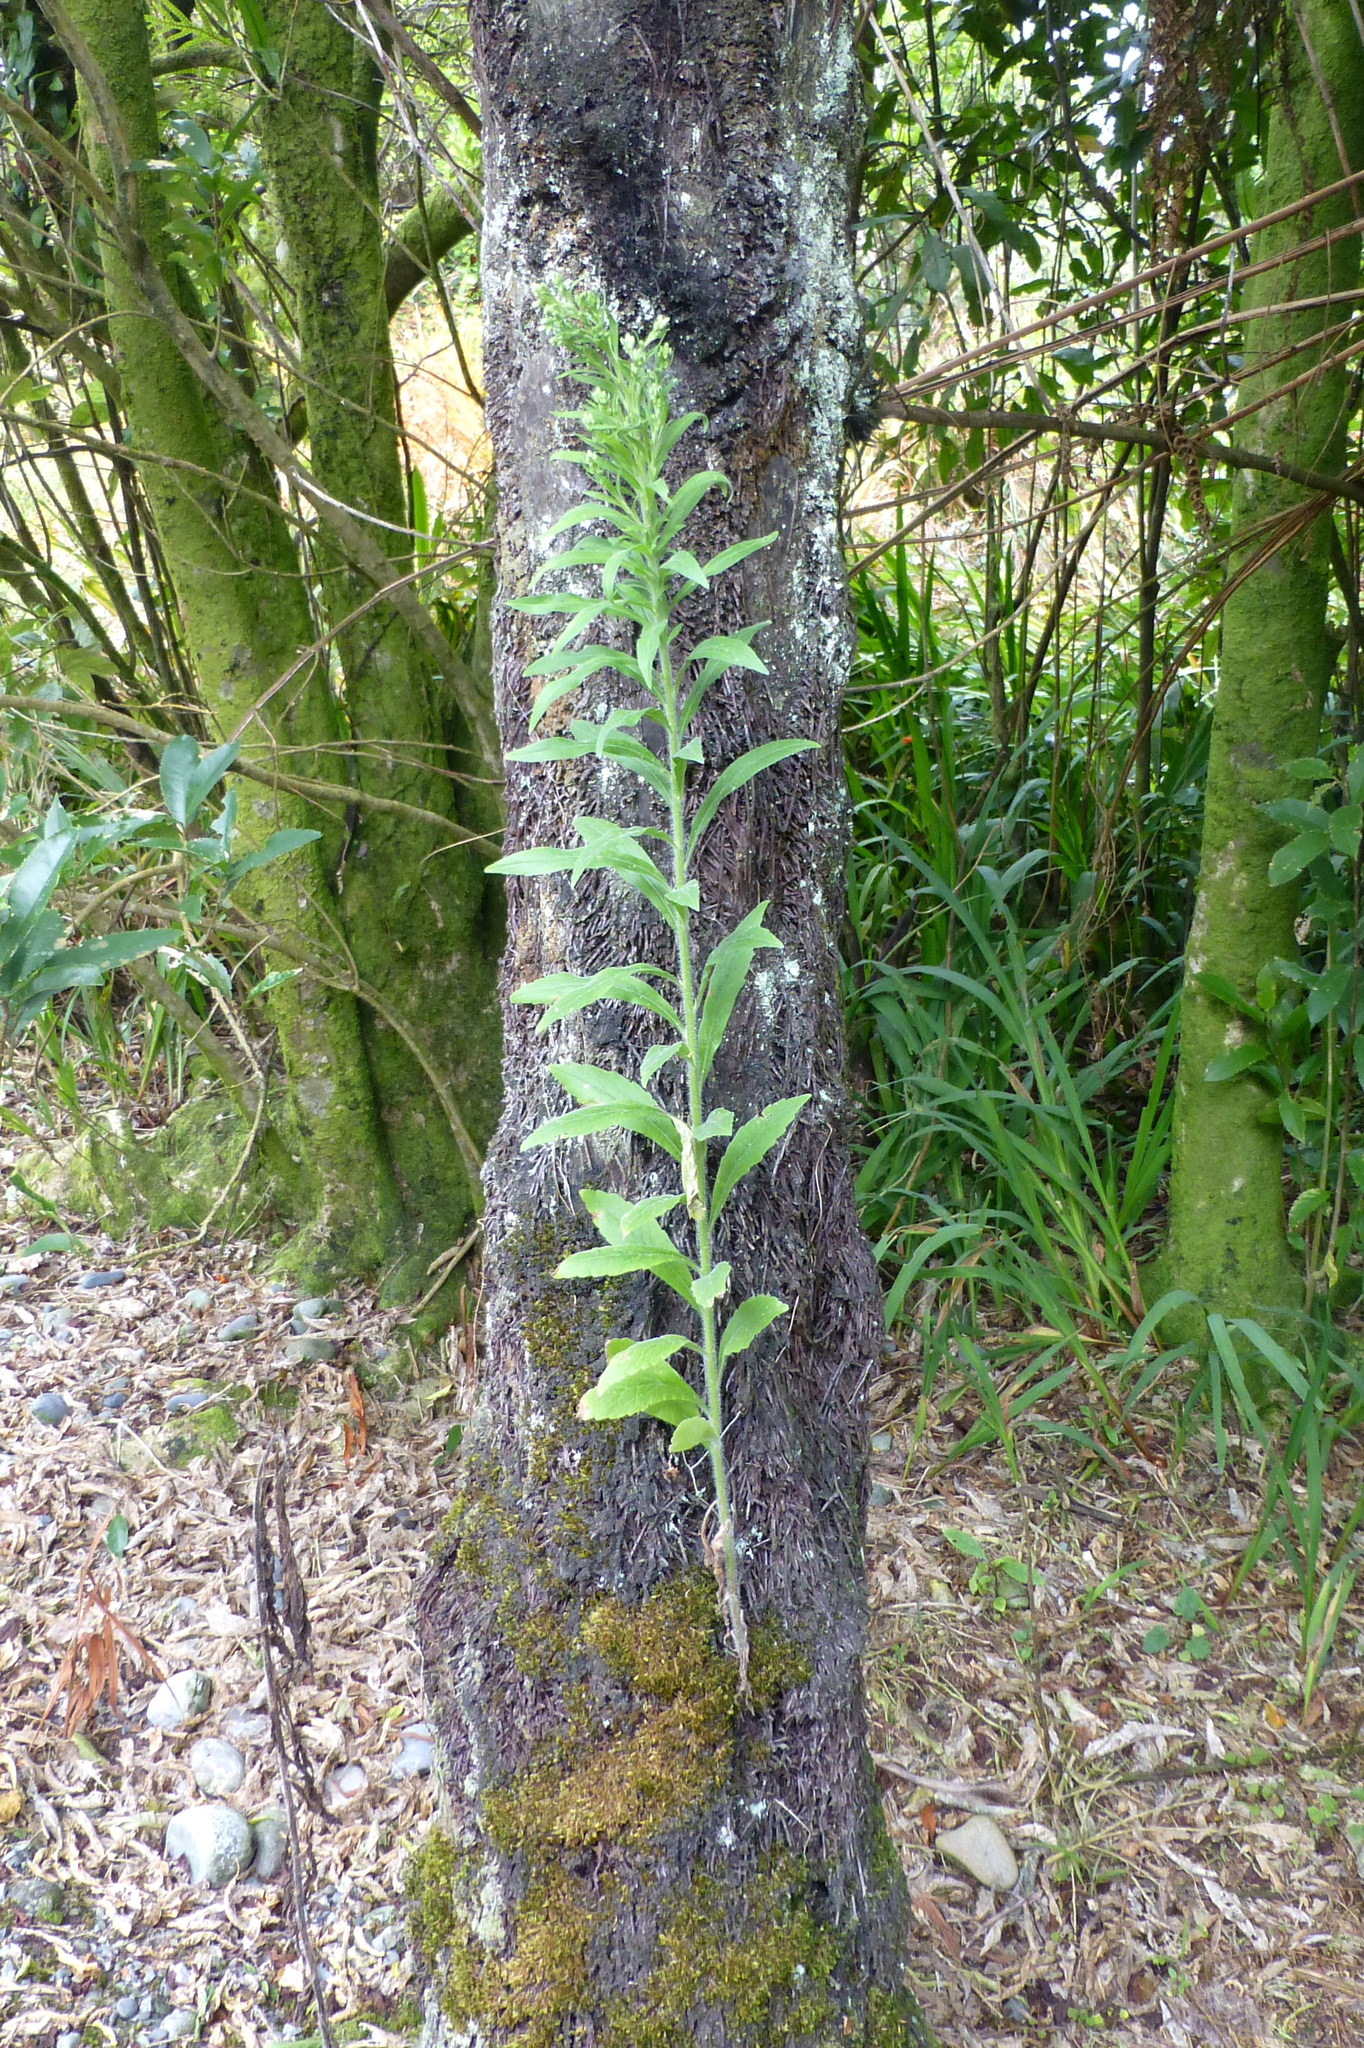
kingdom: Plantae
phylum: Tracheophyta
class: Magnoliopsida
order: Asterales
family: Asteraceae
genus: Erigeron
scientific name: Erigeron sumatrensis
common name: Daisy
